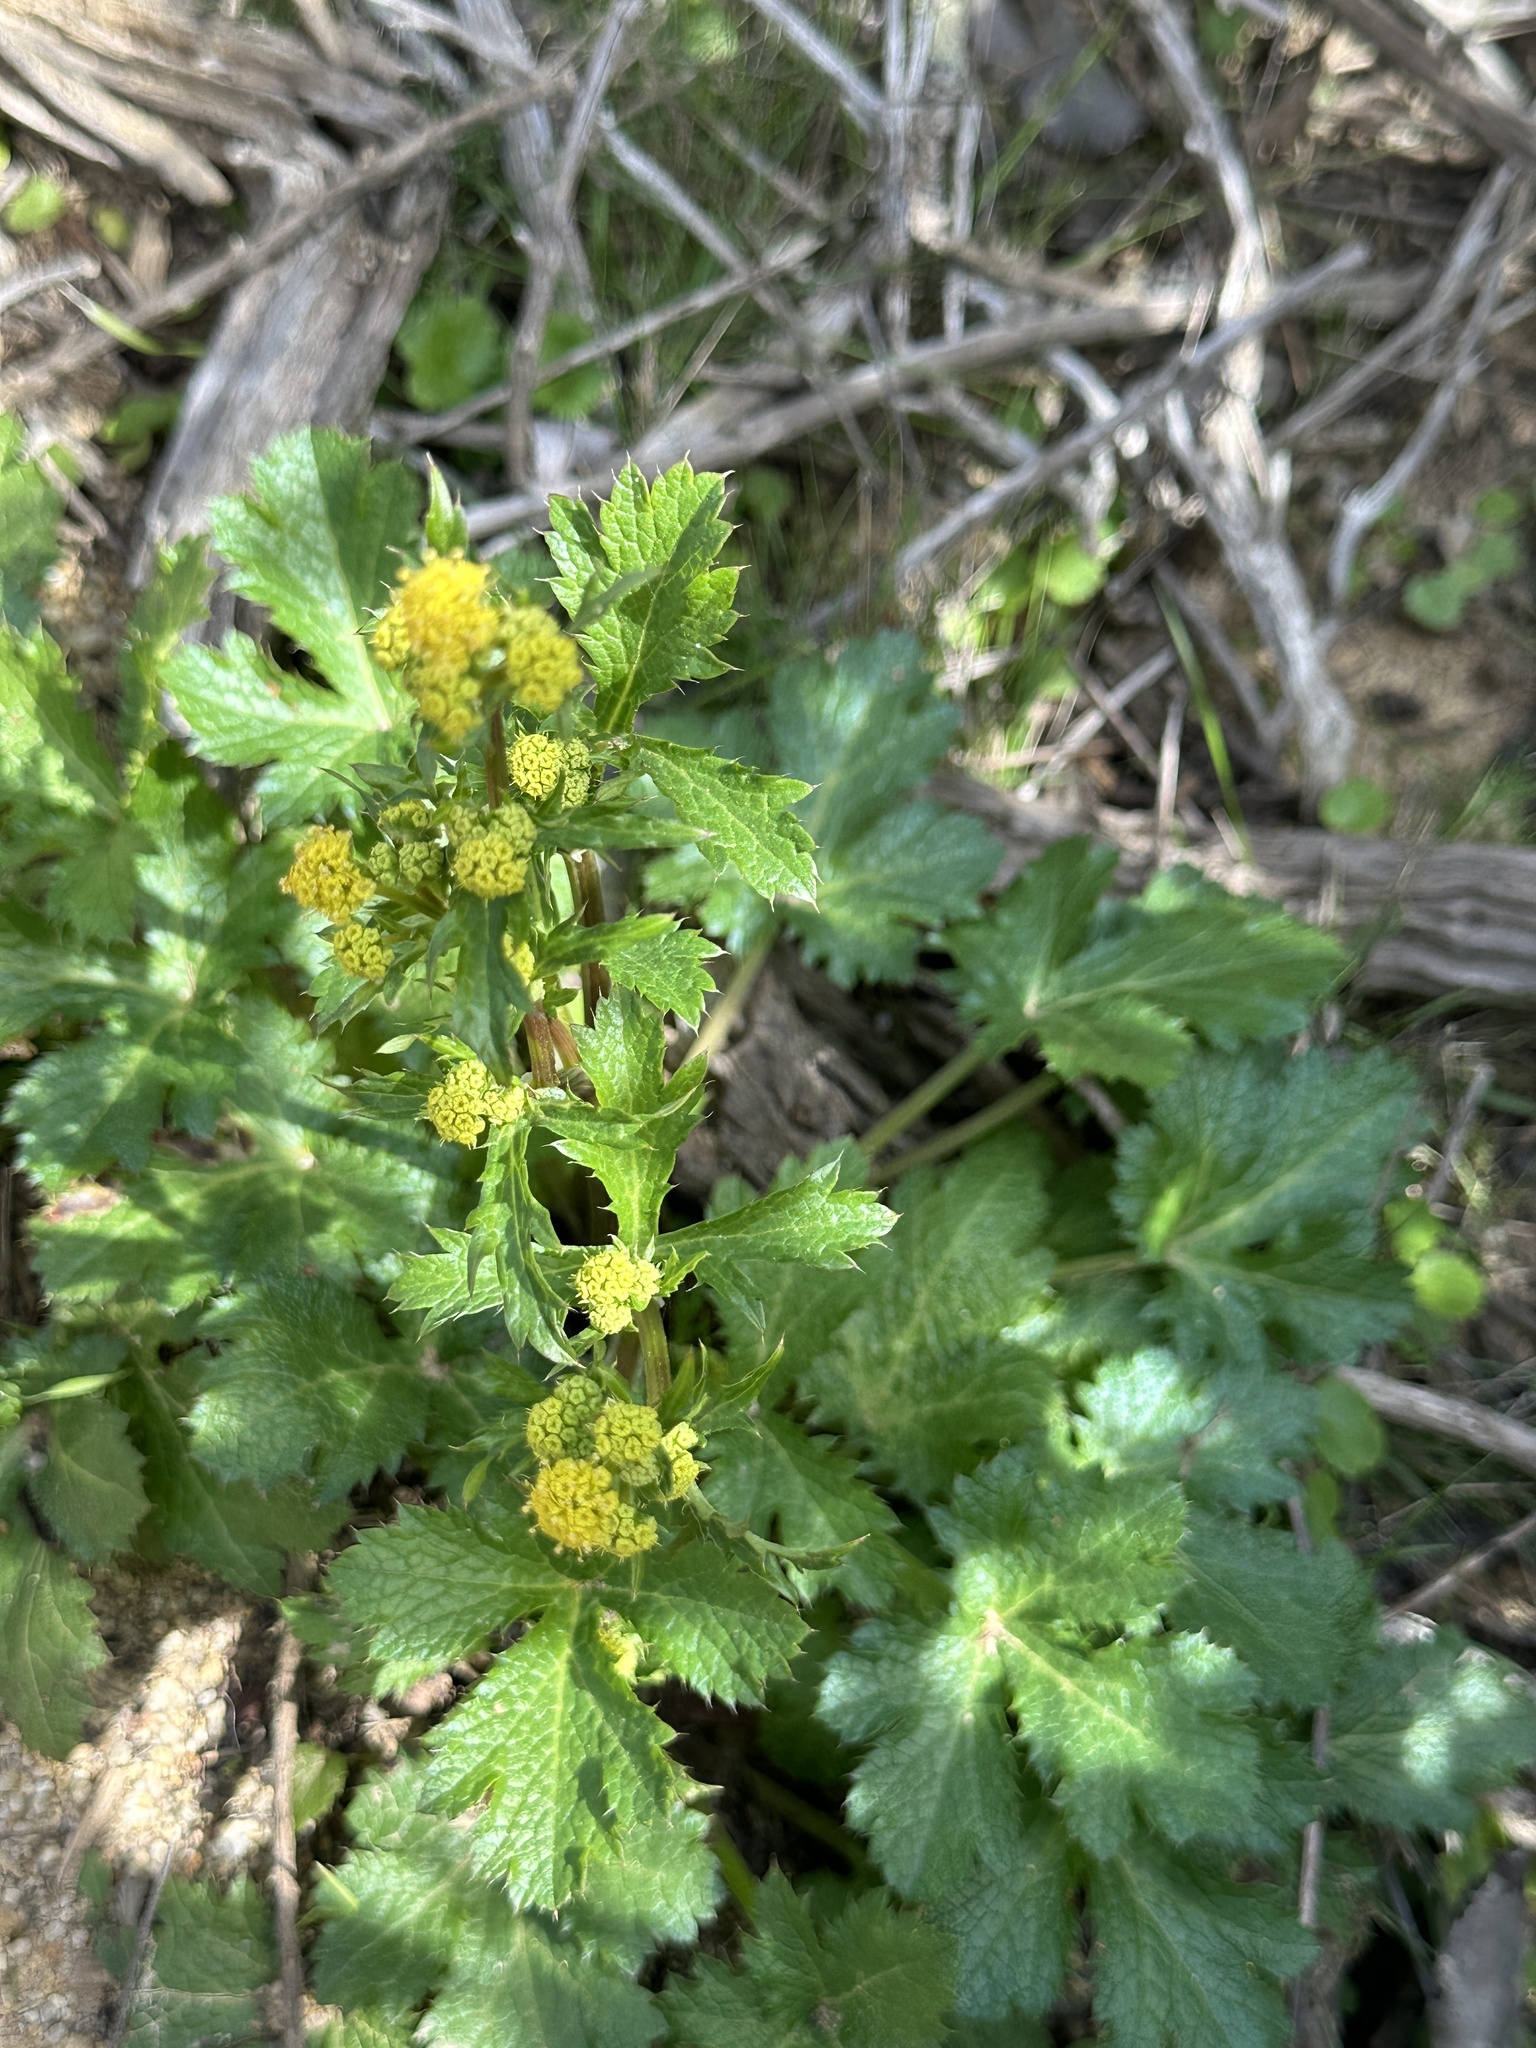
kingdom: Plantae
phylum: Tracheophyta
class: Magnoliopsida
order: Apiales
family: Apiaceae
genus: Sanicula
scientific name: Sanicula crassicaulis
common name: Western snakeroot
